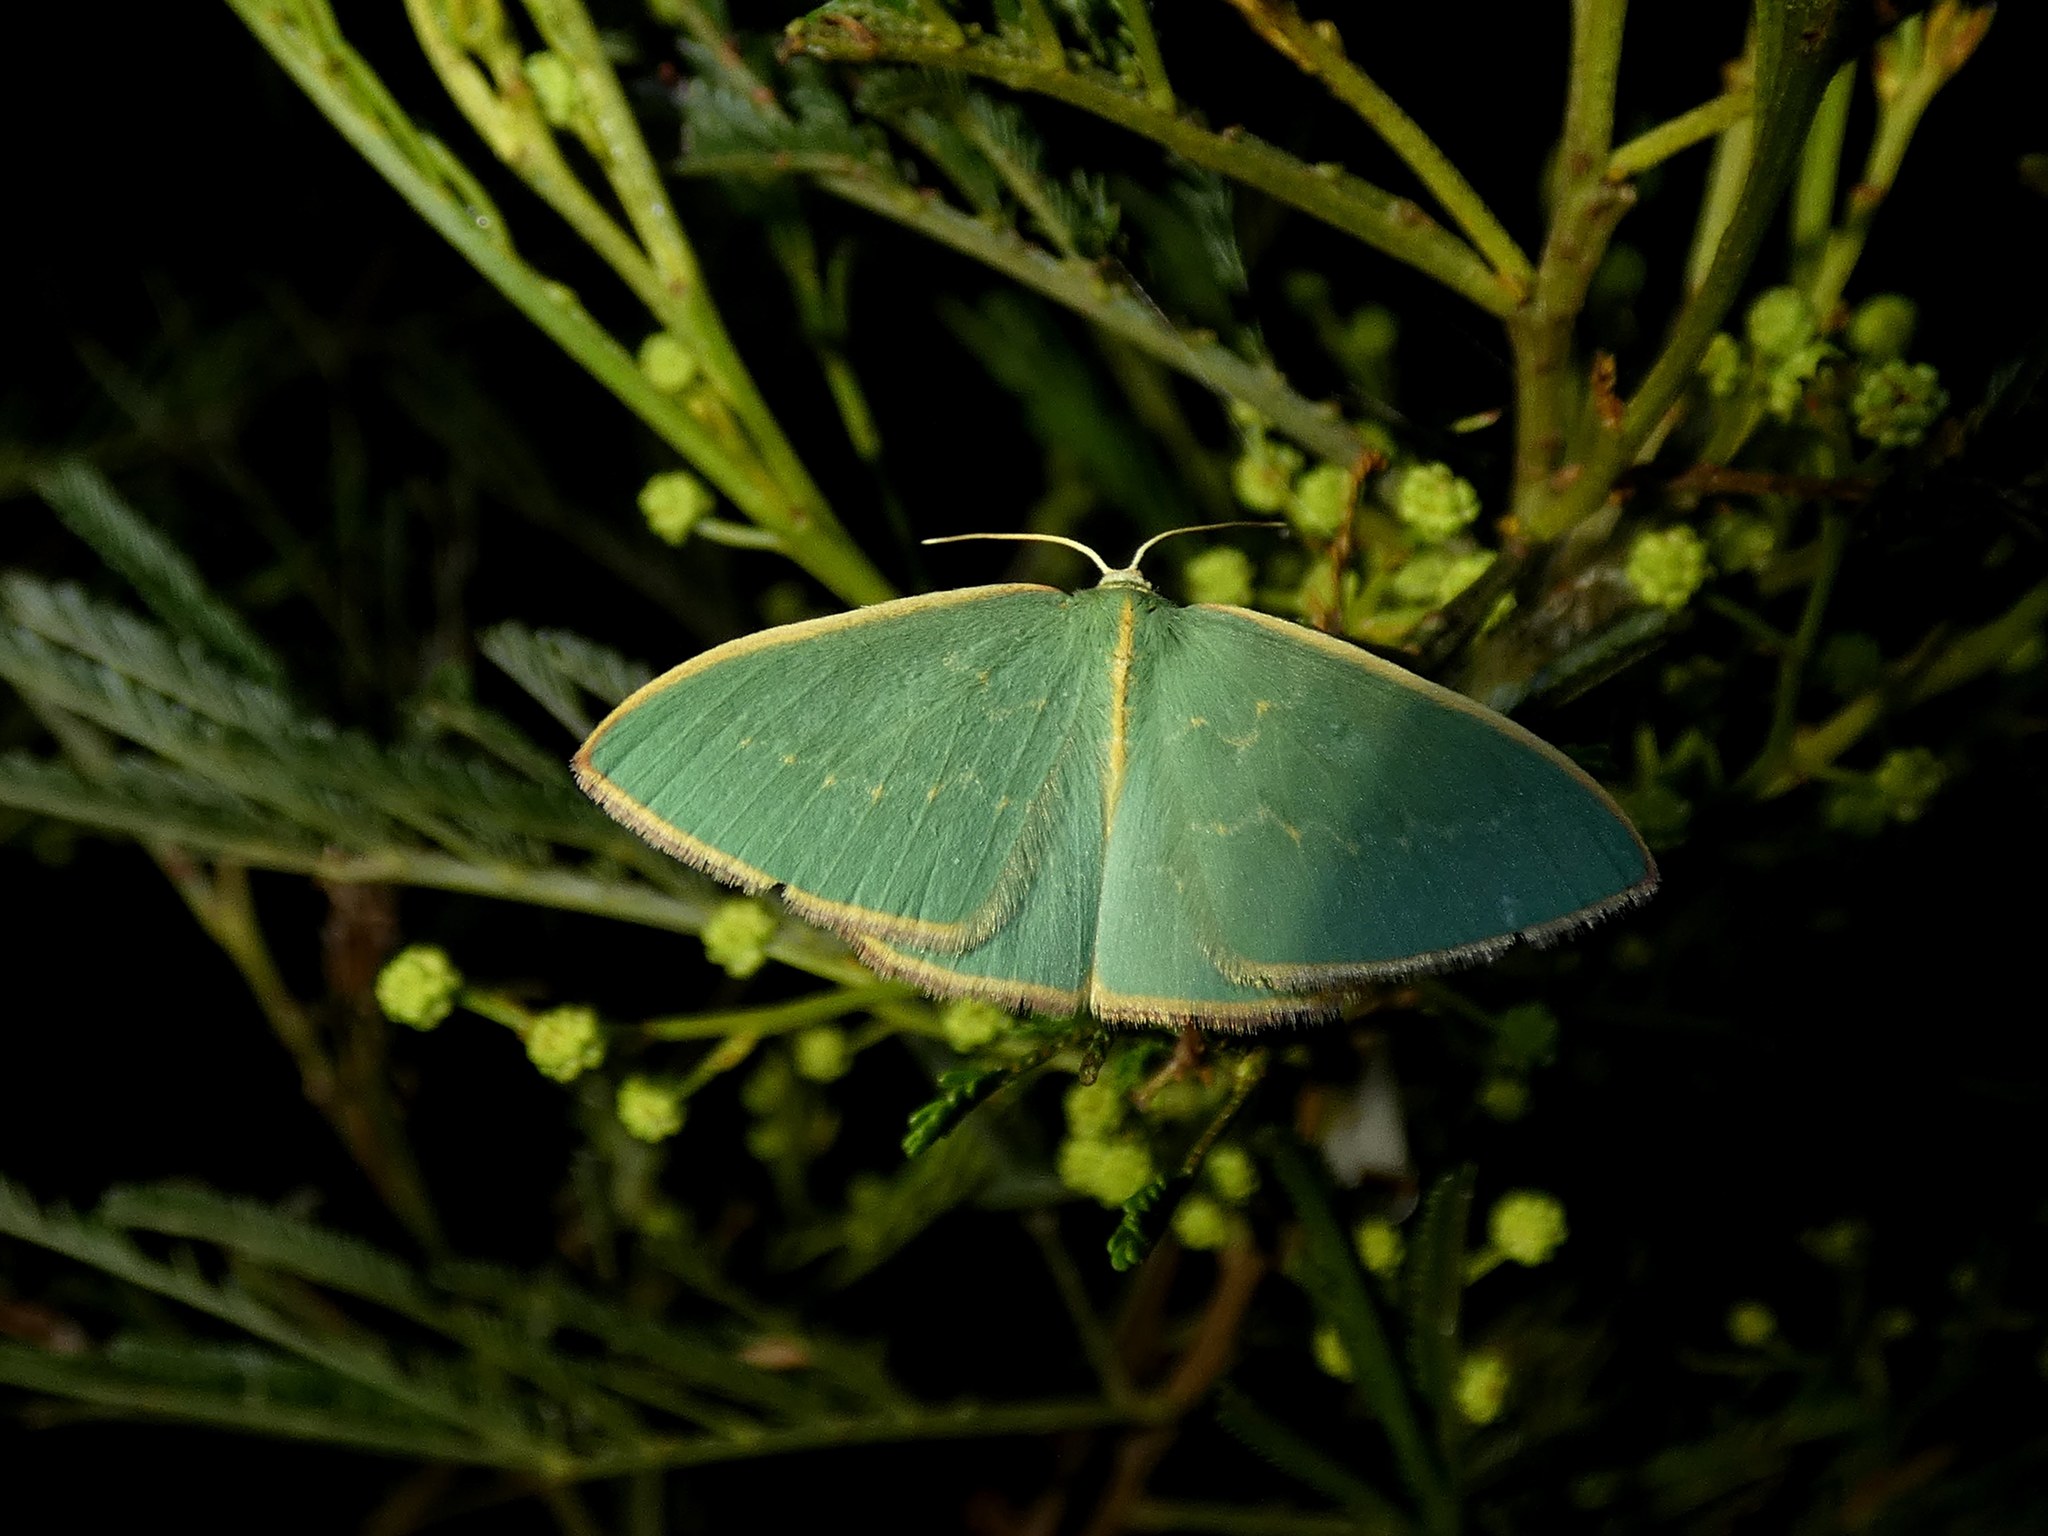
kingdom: Animalia
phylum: Arthropoda
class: Insecta
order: Lepidoptera
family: Geometridae
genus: Chlorocoma
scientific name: Chlorocoma melocrossa
